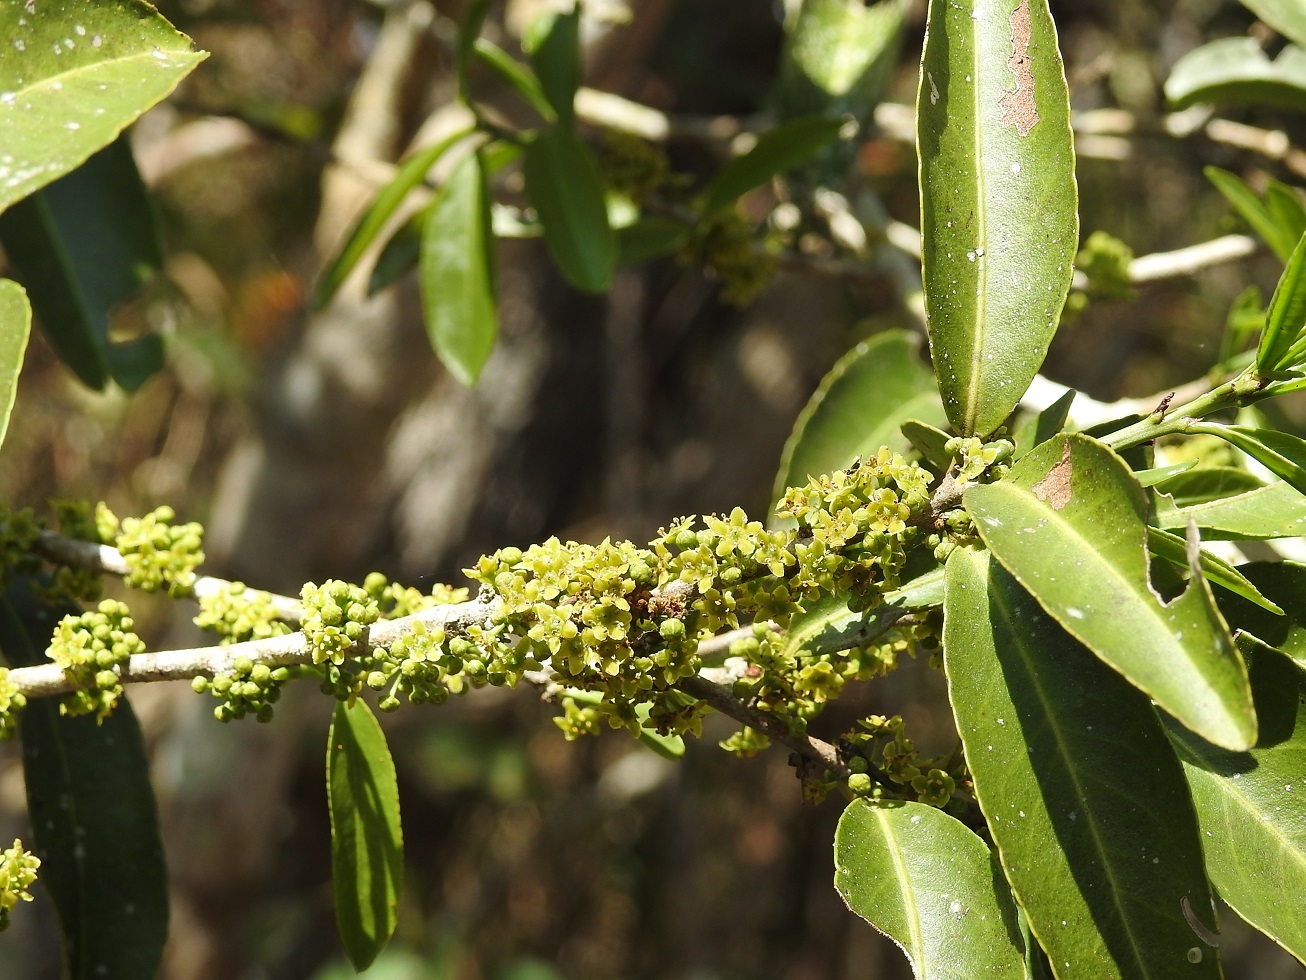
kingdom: Plantae
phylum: Tracheophyta
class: Magnoliopsida
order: Celastrales
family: Celastraceae
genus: Monteverdia
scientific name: Monteverdia chiapensis
